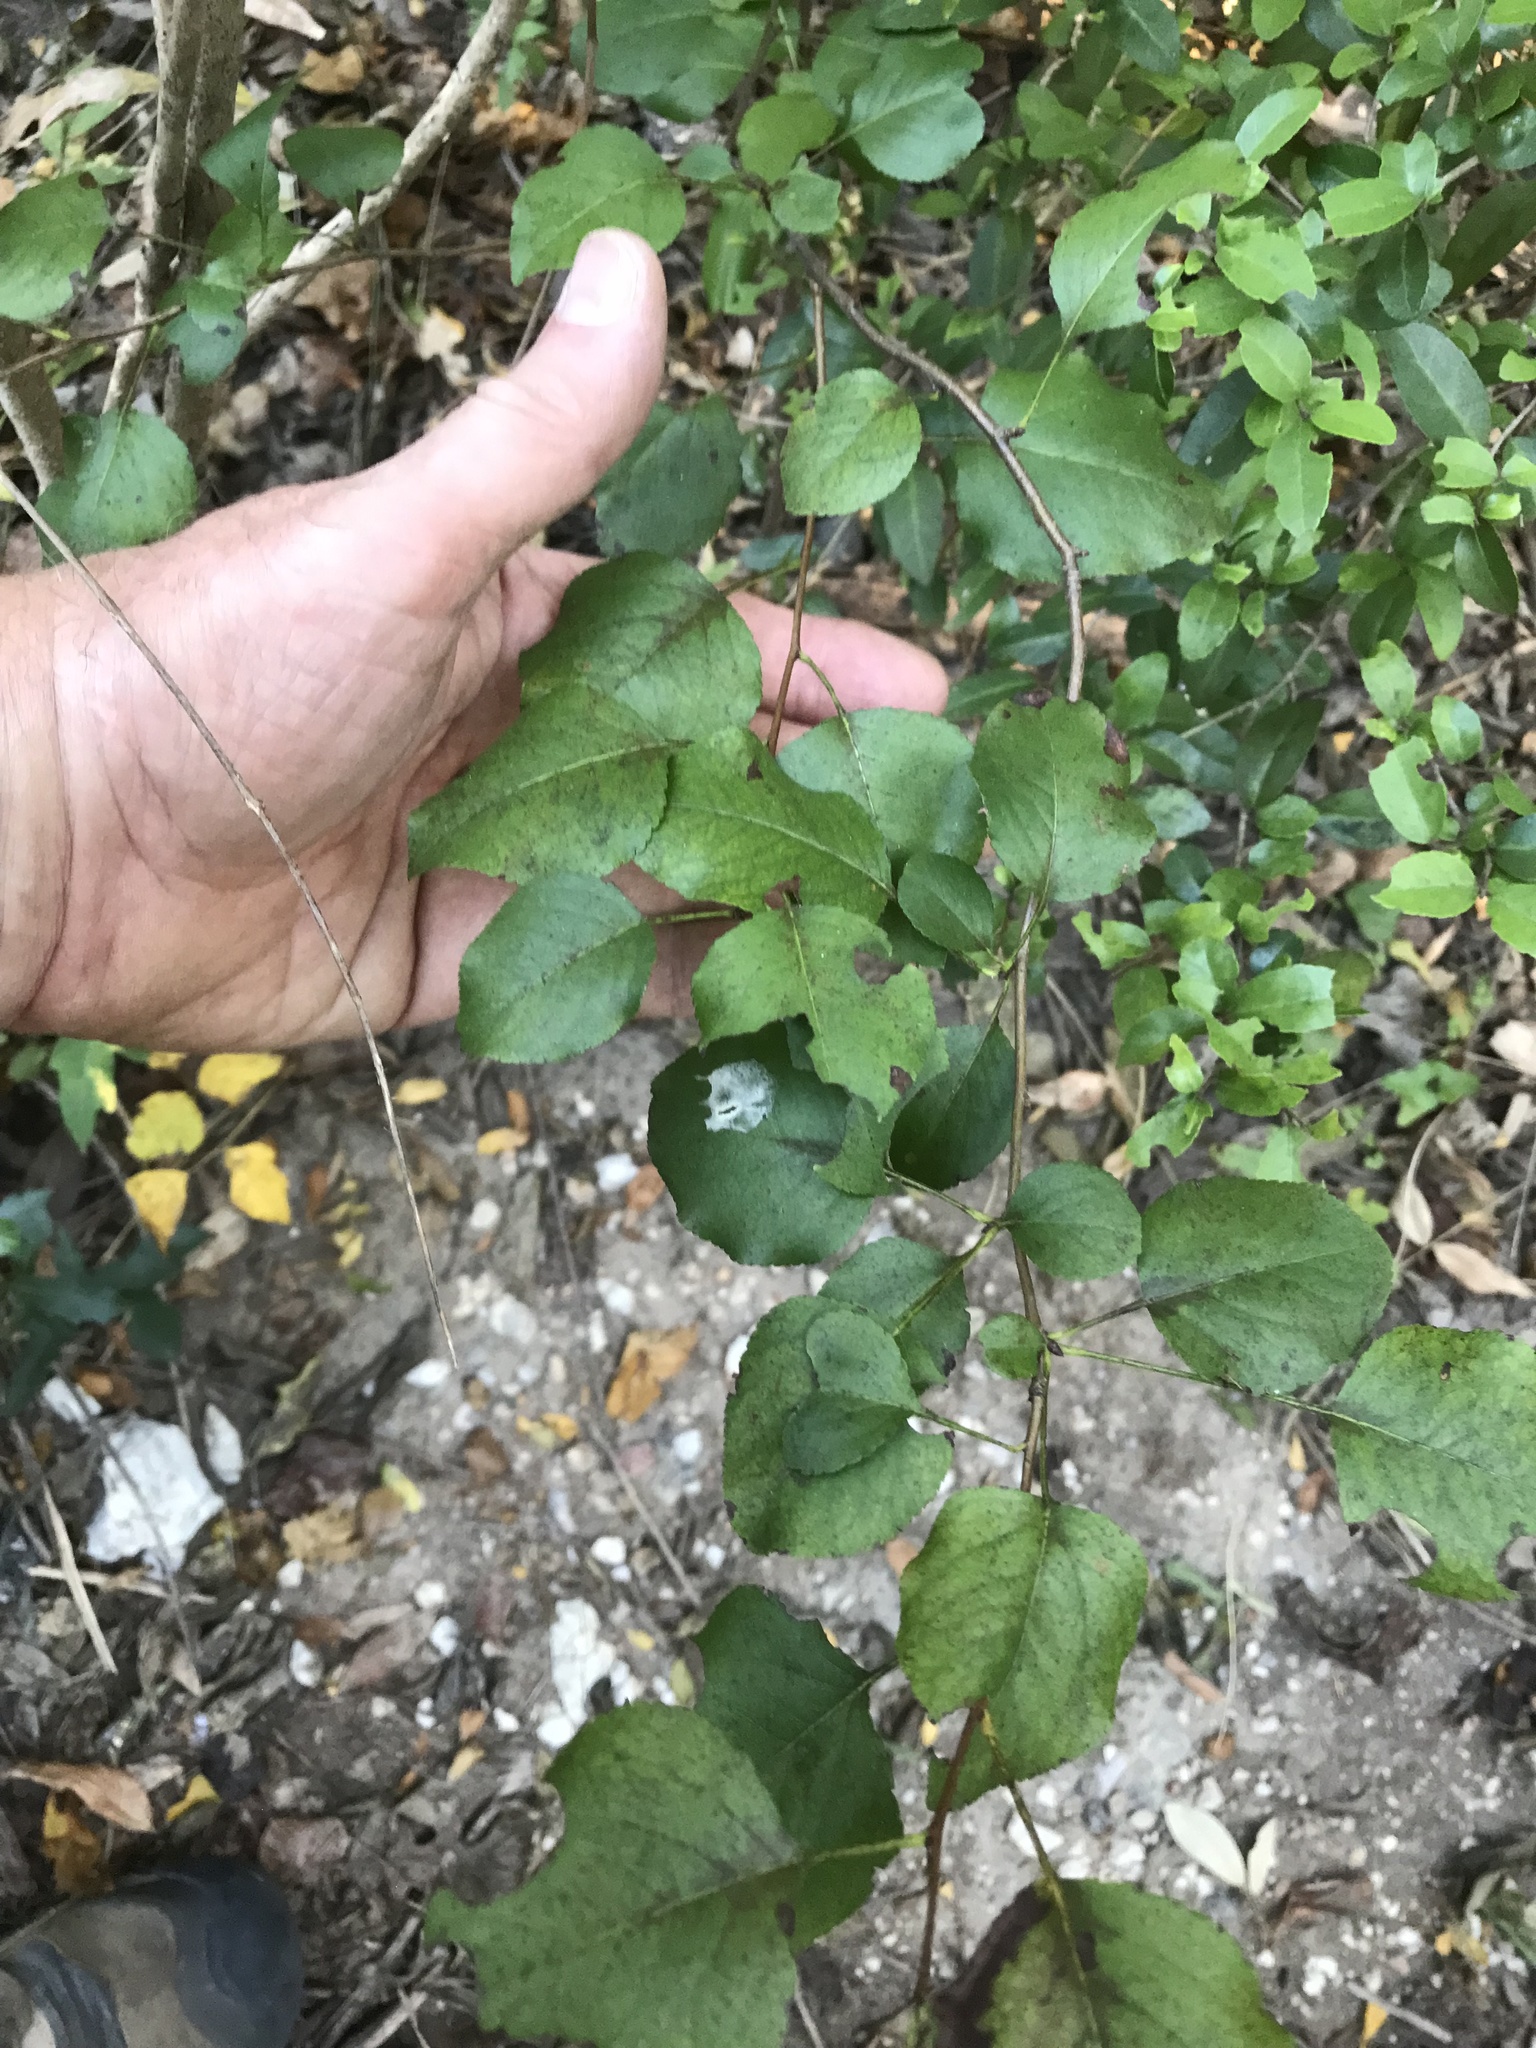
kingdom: Plantae
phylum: Tracheophyta
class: Magnoliopsida
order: Rosales
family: Rosaceae
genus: Pyrus
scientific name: Pyrus calleryana
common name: Callery pear
